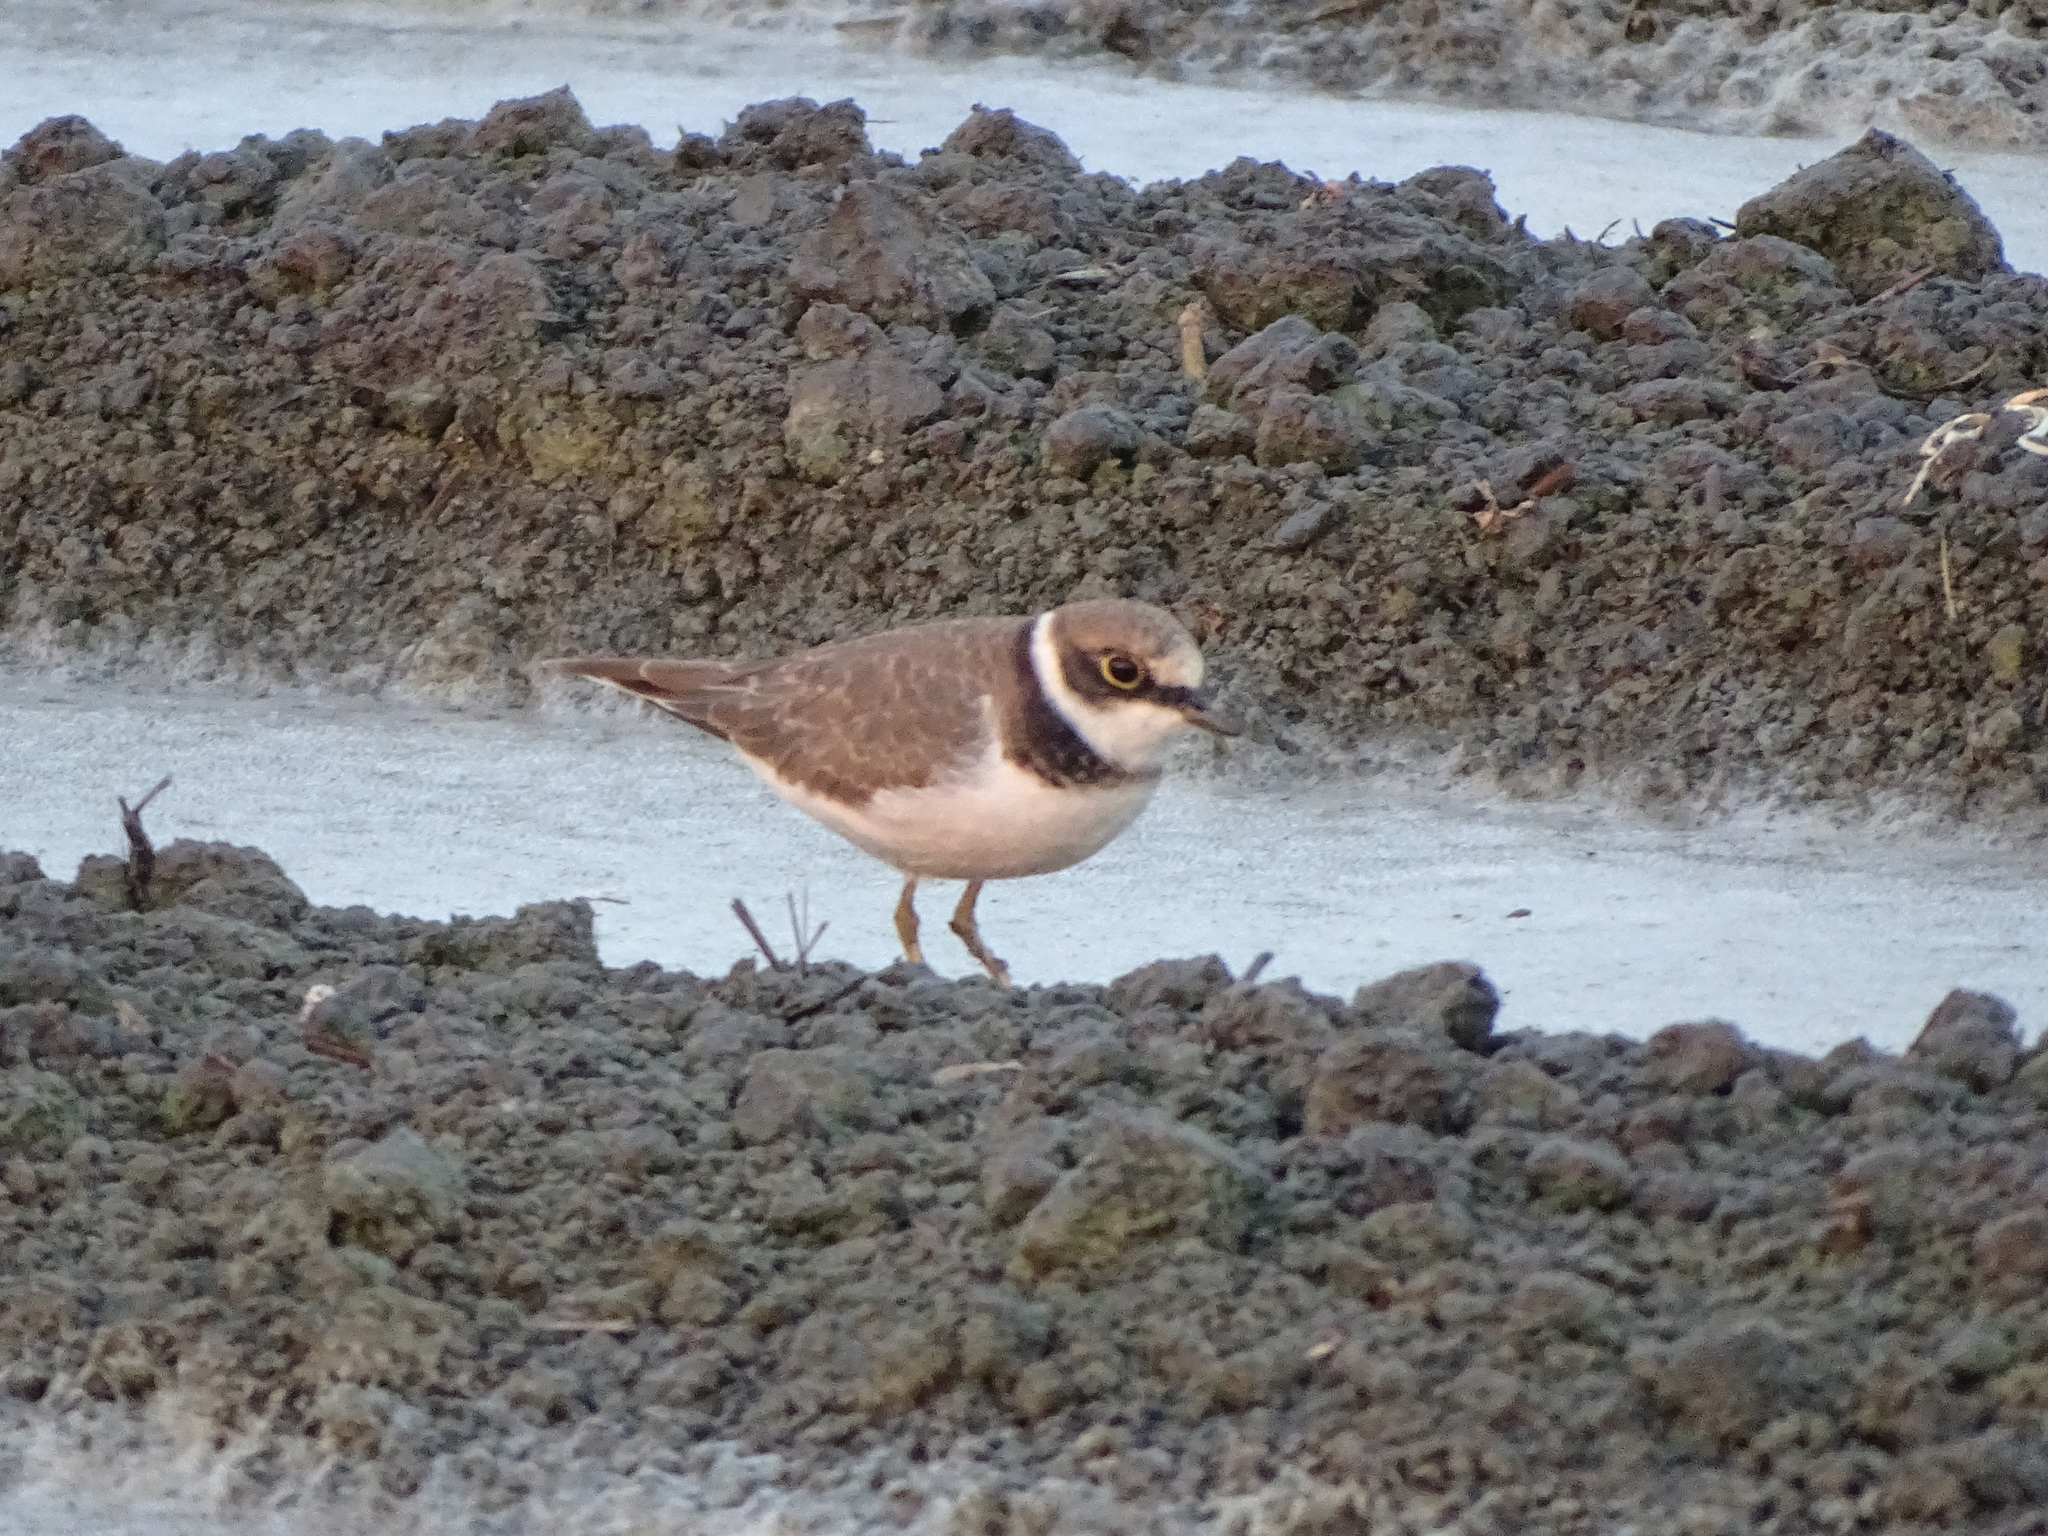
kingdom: Animalia
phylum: Chordata
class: Aves
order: Charadriiformes
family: Charadriidae
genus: Charadrius
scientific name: Charadrius dubius
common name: Little ringed plover
